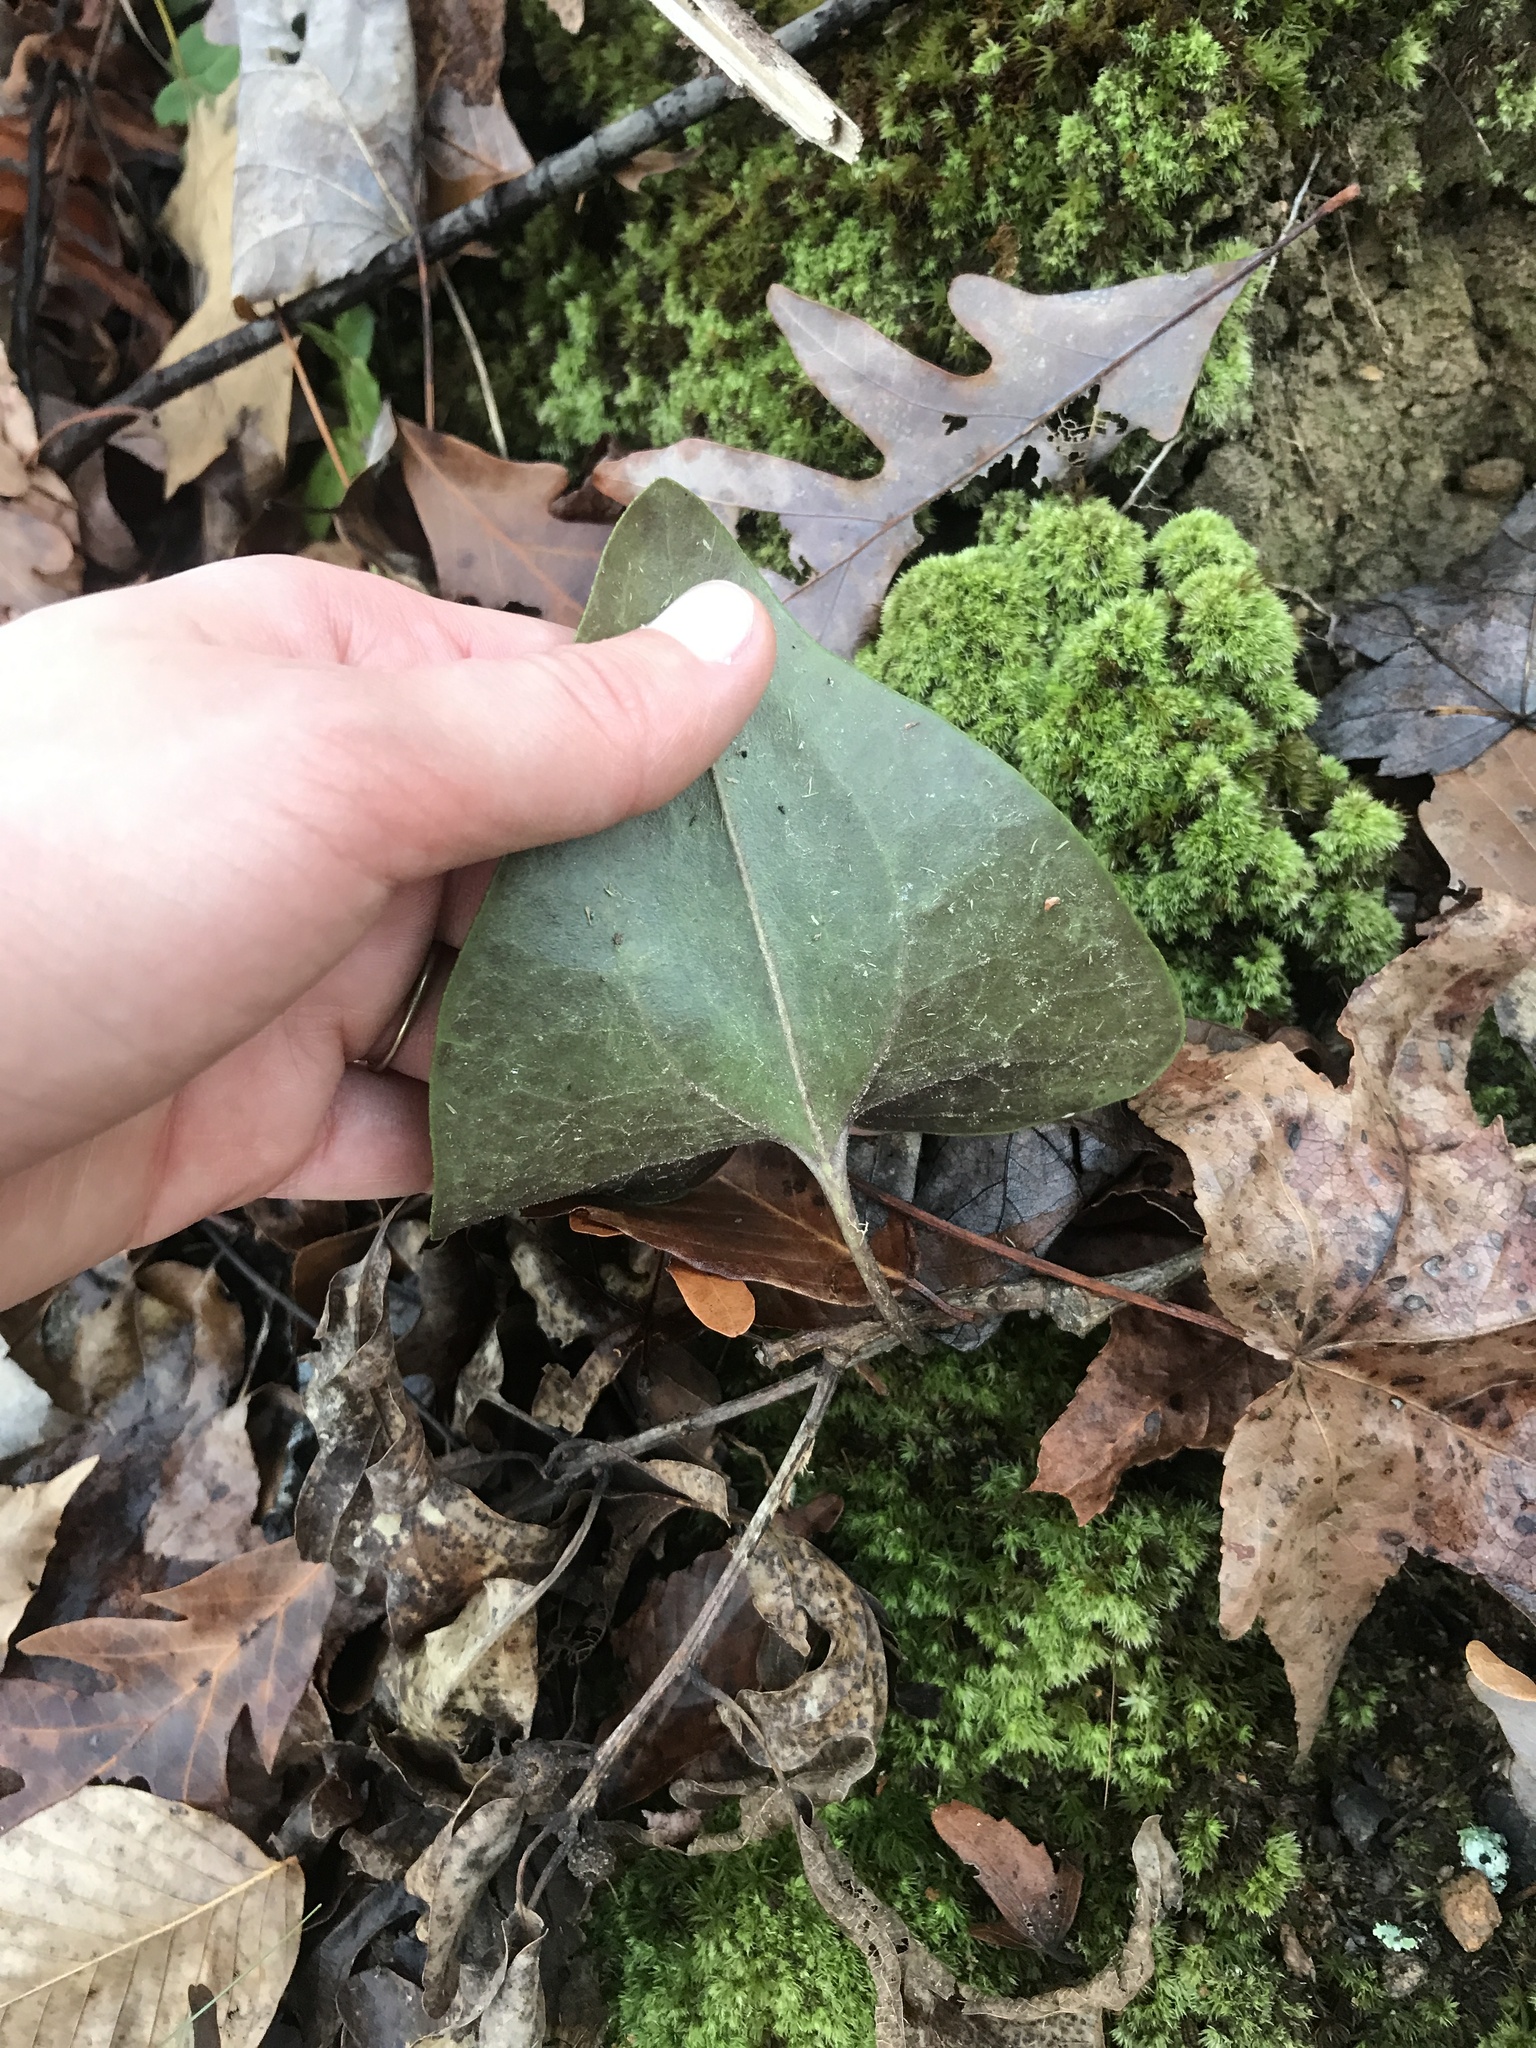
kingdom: Plantae
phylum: Tracheophyta
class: Magnoliopsida
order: Piperales
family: Aristolochiaceae
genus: Hexastylis
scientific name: Hexastylis arifolia
